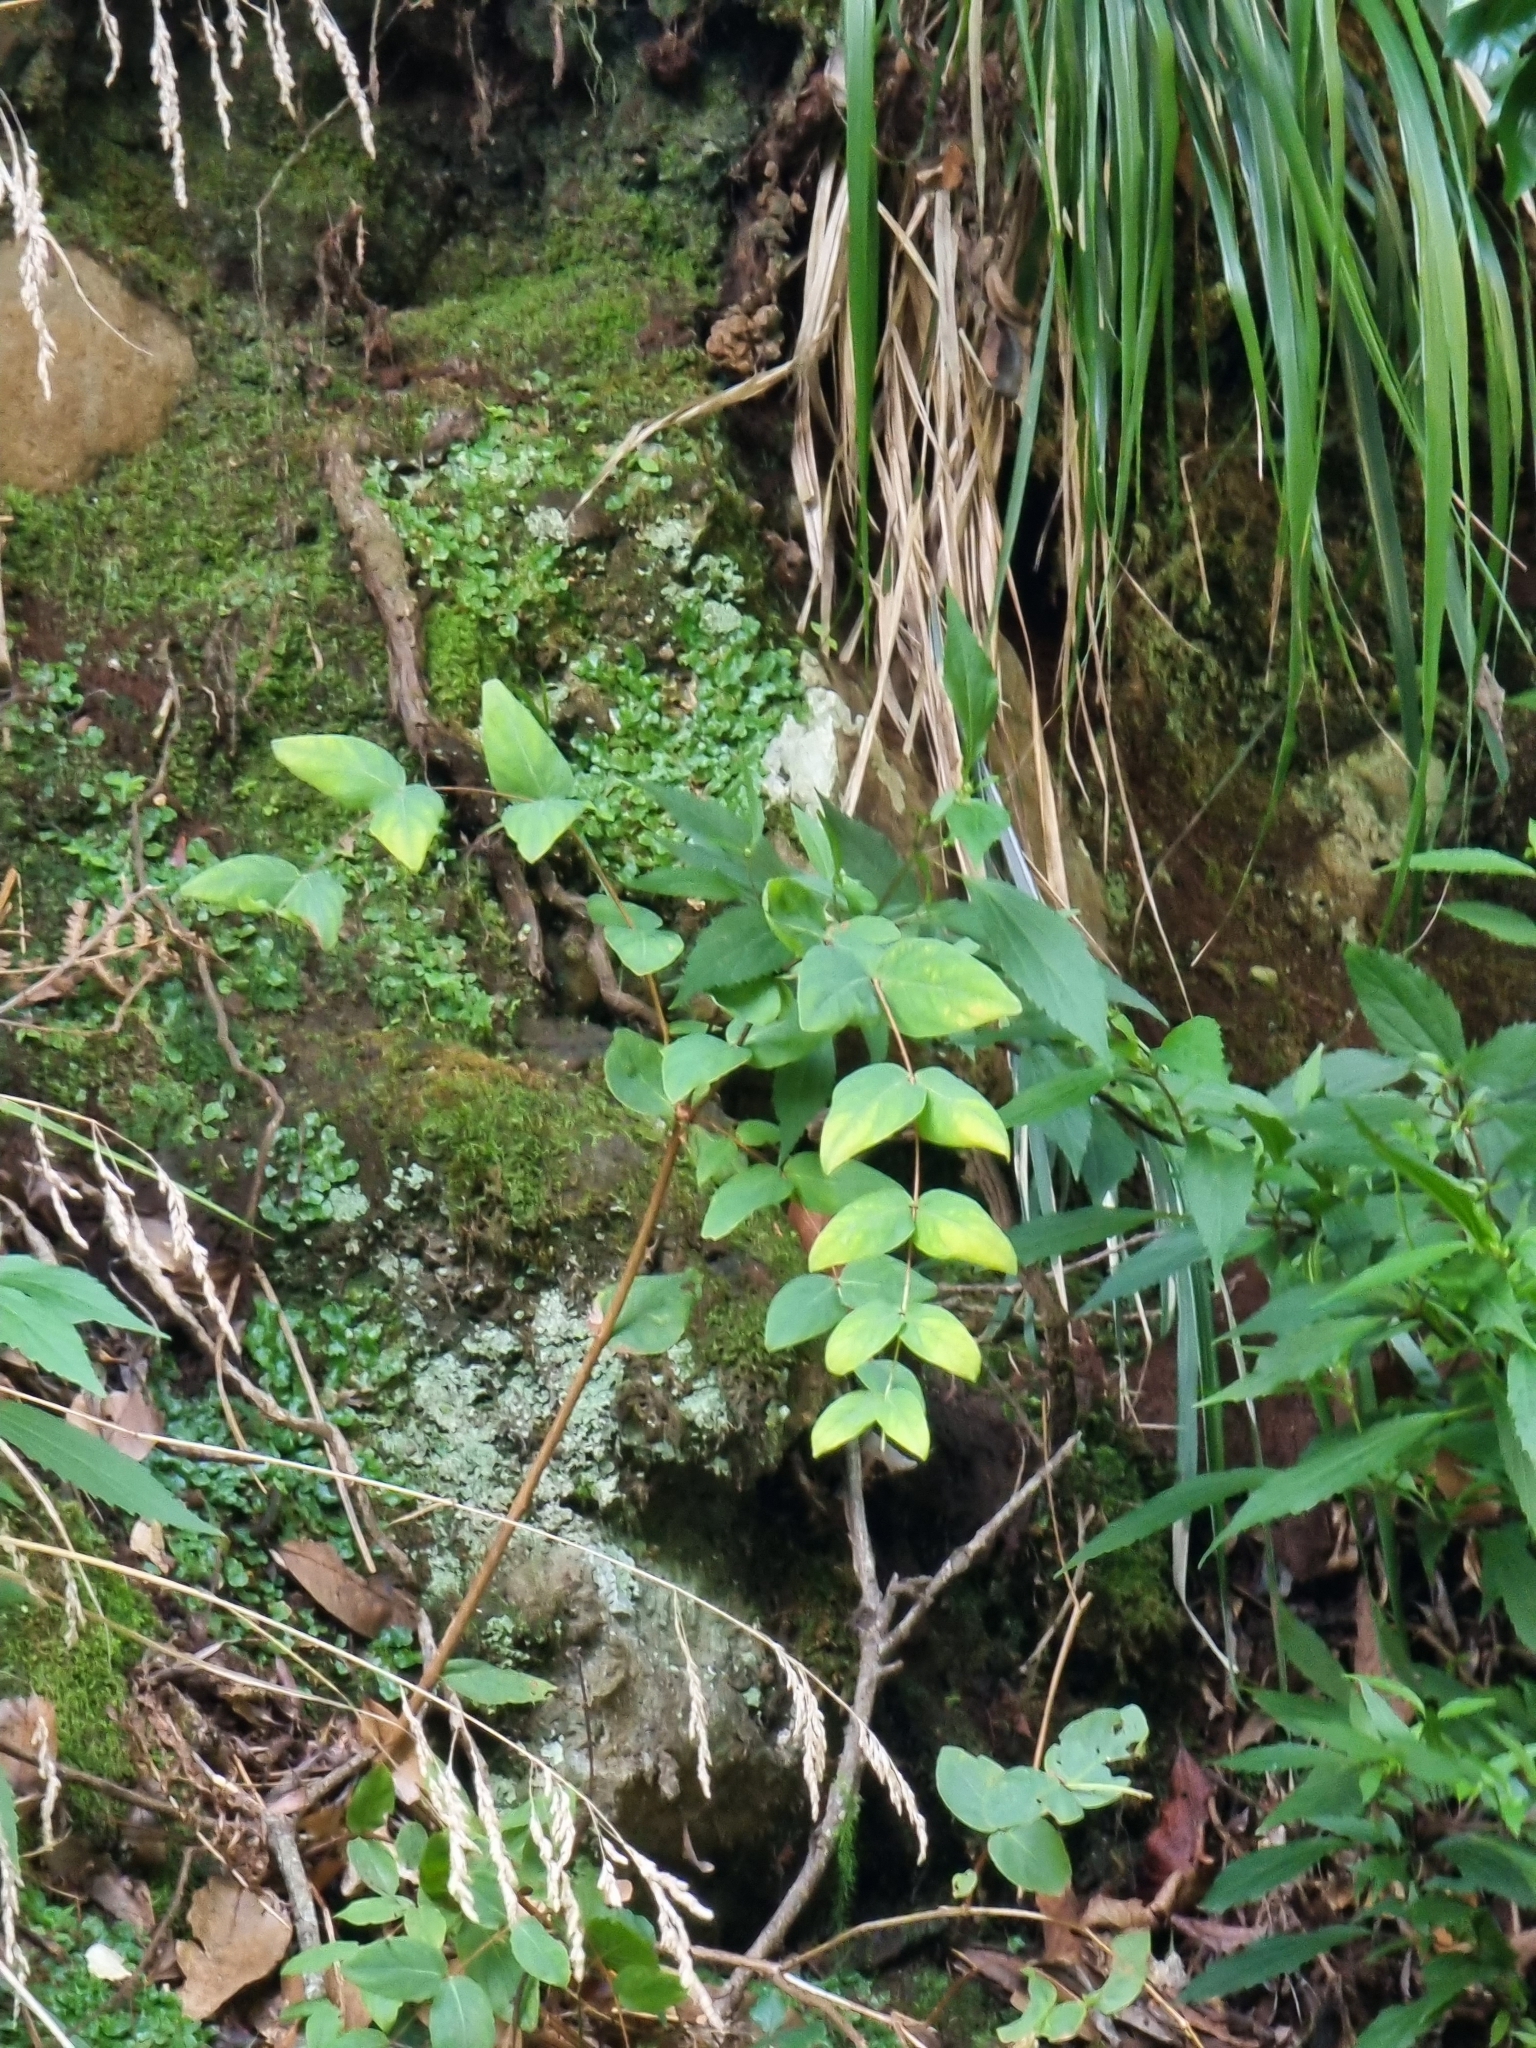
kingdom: Plantae
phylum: Tracheophyta
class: Magnoliopsida
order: Malpighiales
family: Hypericaceae
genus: Hypericum
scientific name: Hypericum grandifolium
